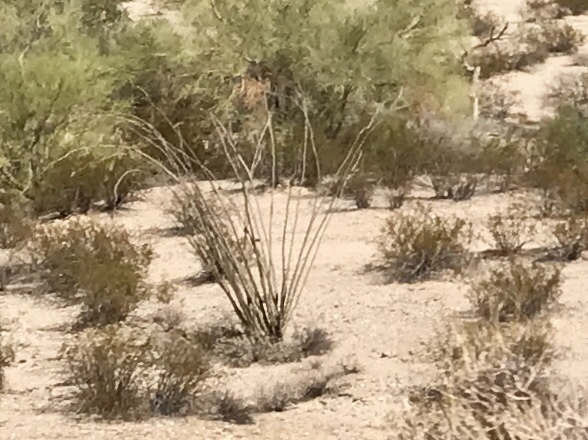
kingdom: Plantae
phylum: Tracheophyta
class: Magnoliopsida
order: Ericales
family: Fouquieriaceae
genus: Fouquieria
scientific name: Fouquieria splendens
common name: Vine-cactus
